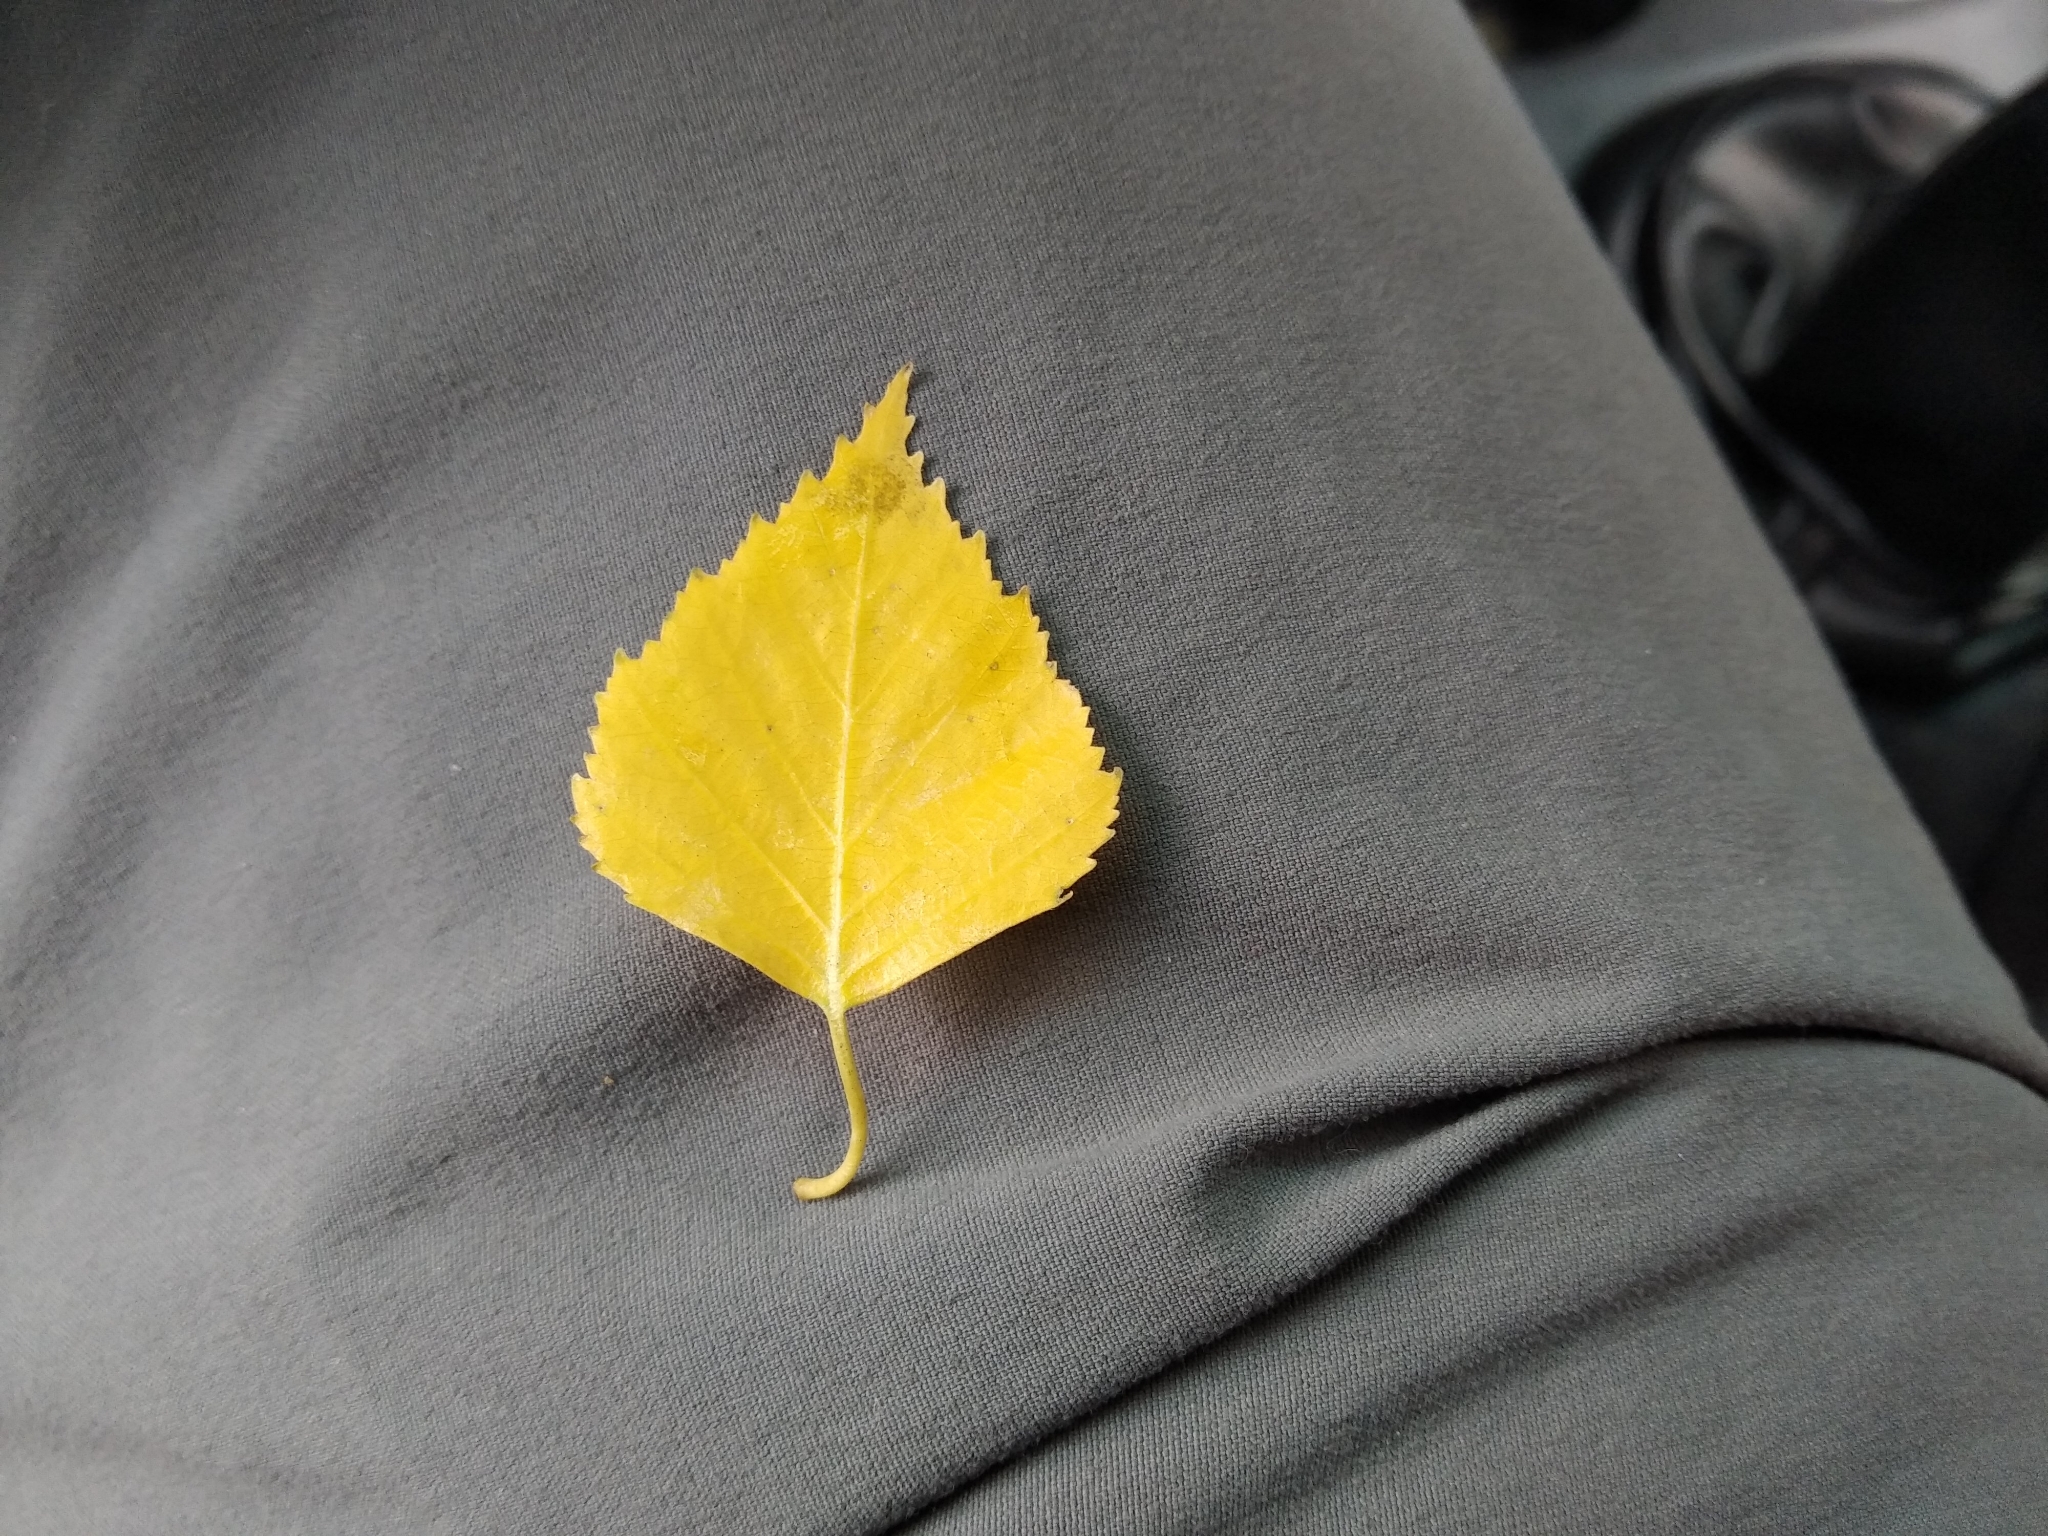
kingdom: Plantae
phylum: Tracheophyta
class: Magnoliopsida
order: Fagales
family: Betulaceae
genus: Betula
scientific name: Betula pendula
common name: Silver birch
